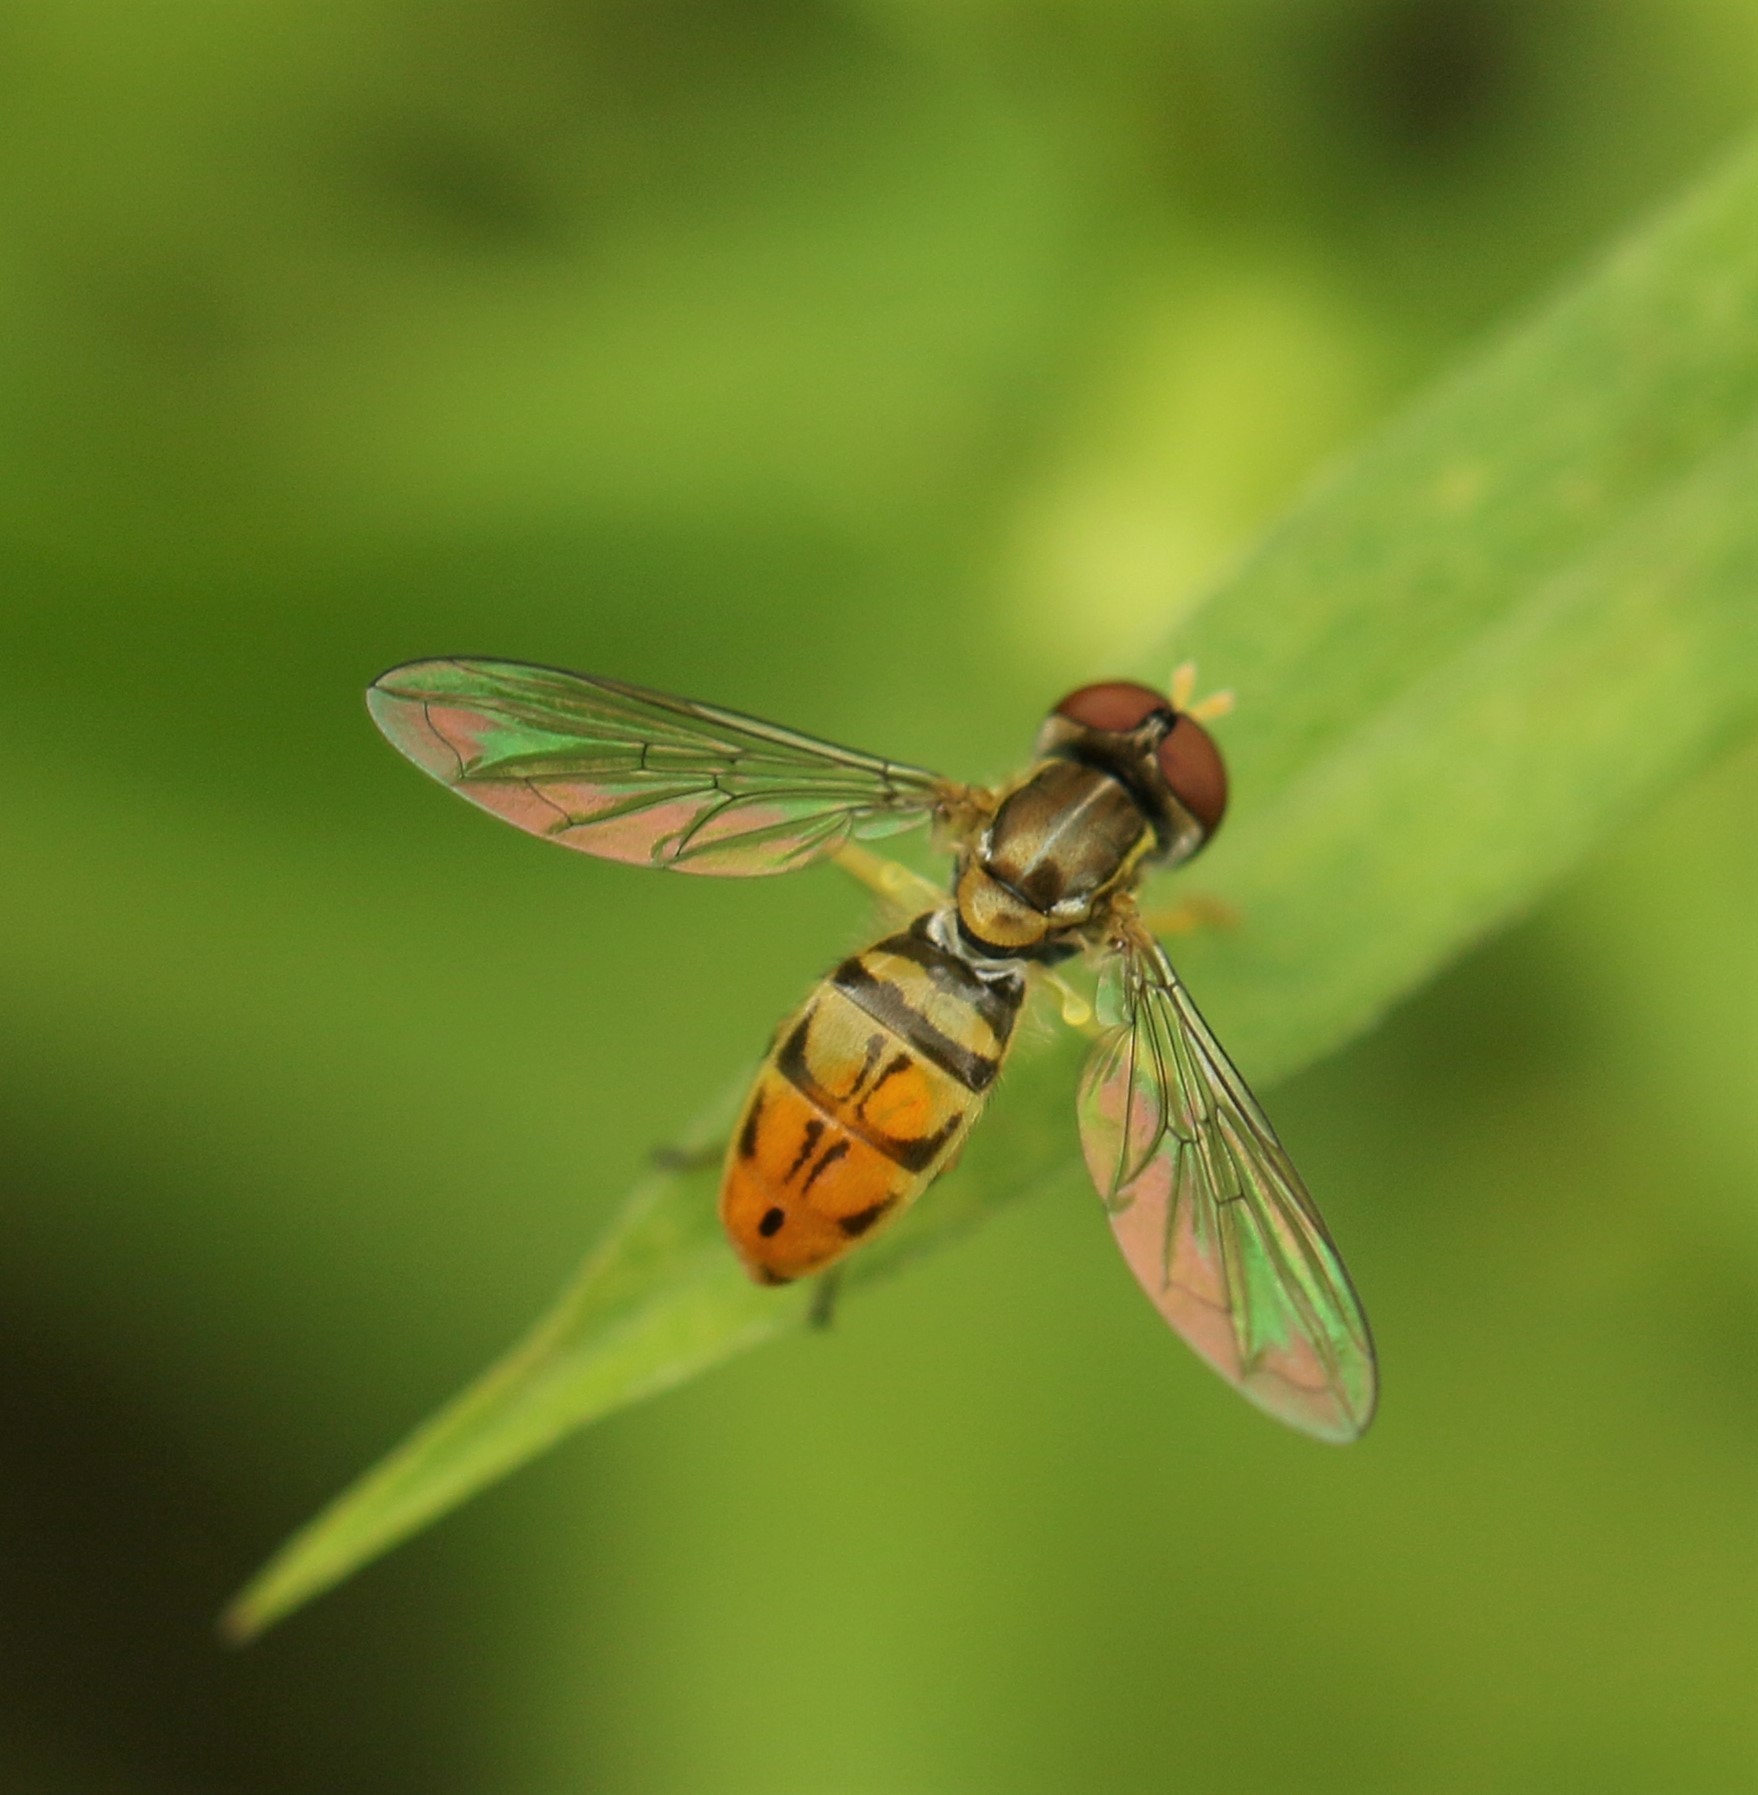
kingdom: Animalia
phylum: Arthropoda
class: Insecta
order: Diptera
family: Syrphidae
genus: Toxomerus
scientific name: Toxomerus marginatus
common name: Syrphid fly
